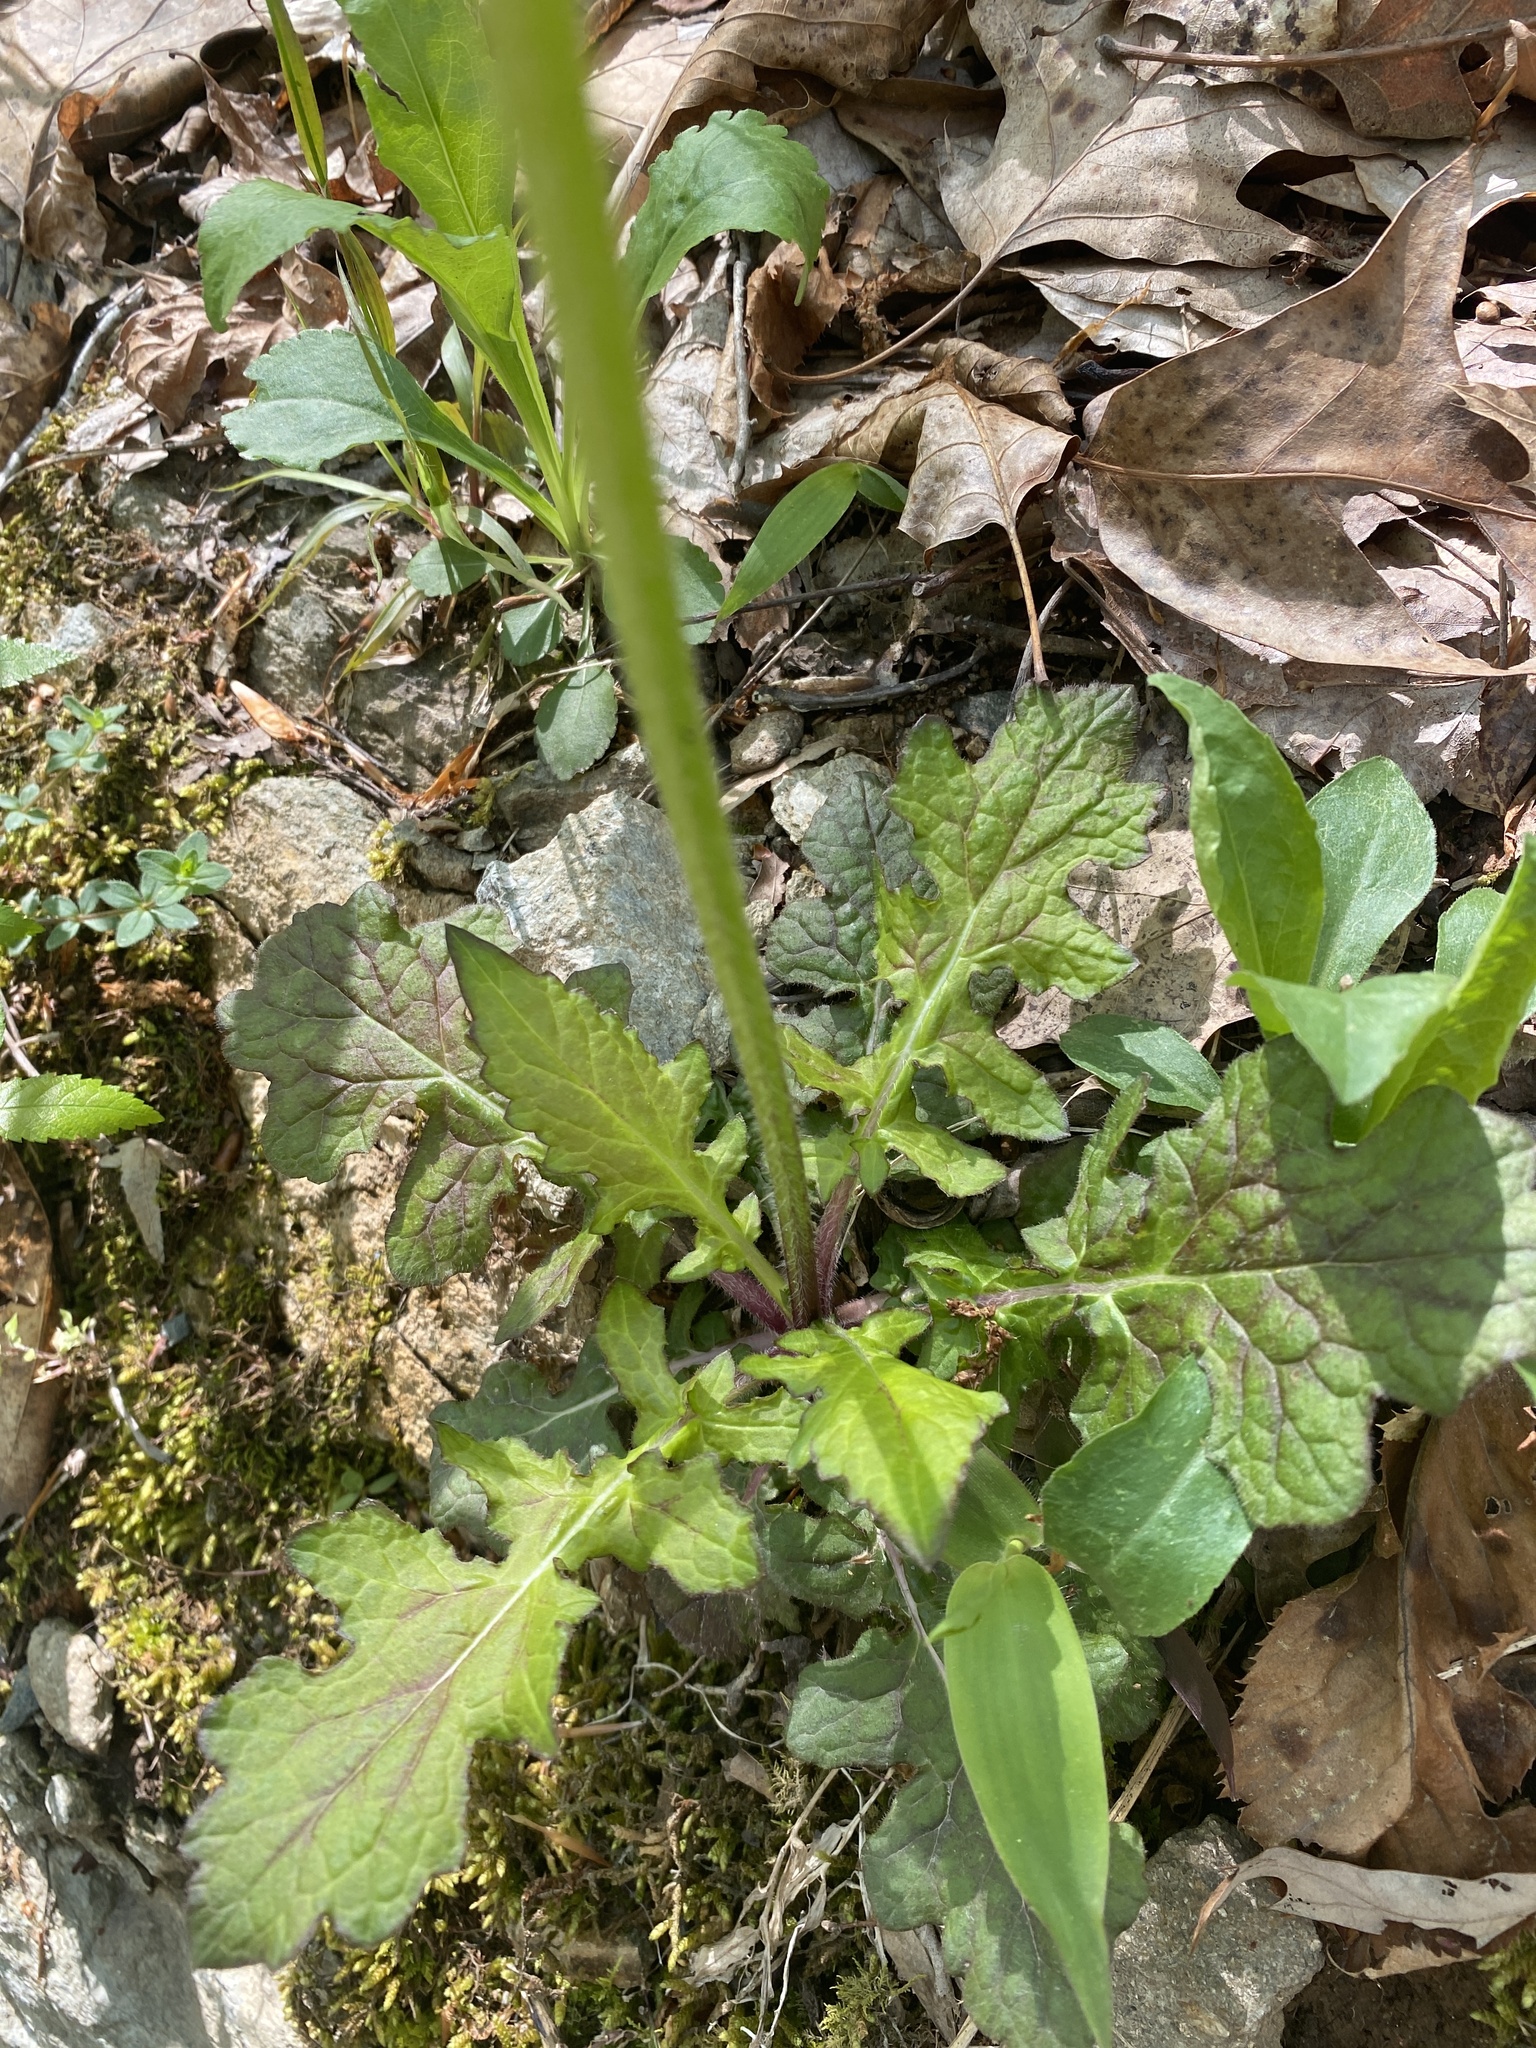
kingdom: Plantae
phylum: Tracheophyta
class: Magnoliopsida
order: Lamiales
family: Lamiaceae
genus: Salvia
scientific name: Salvia lyrata
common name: Cancerweed
